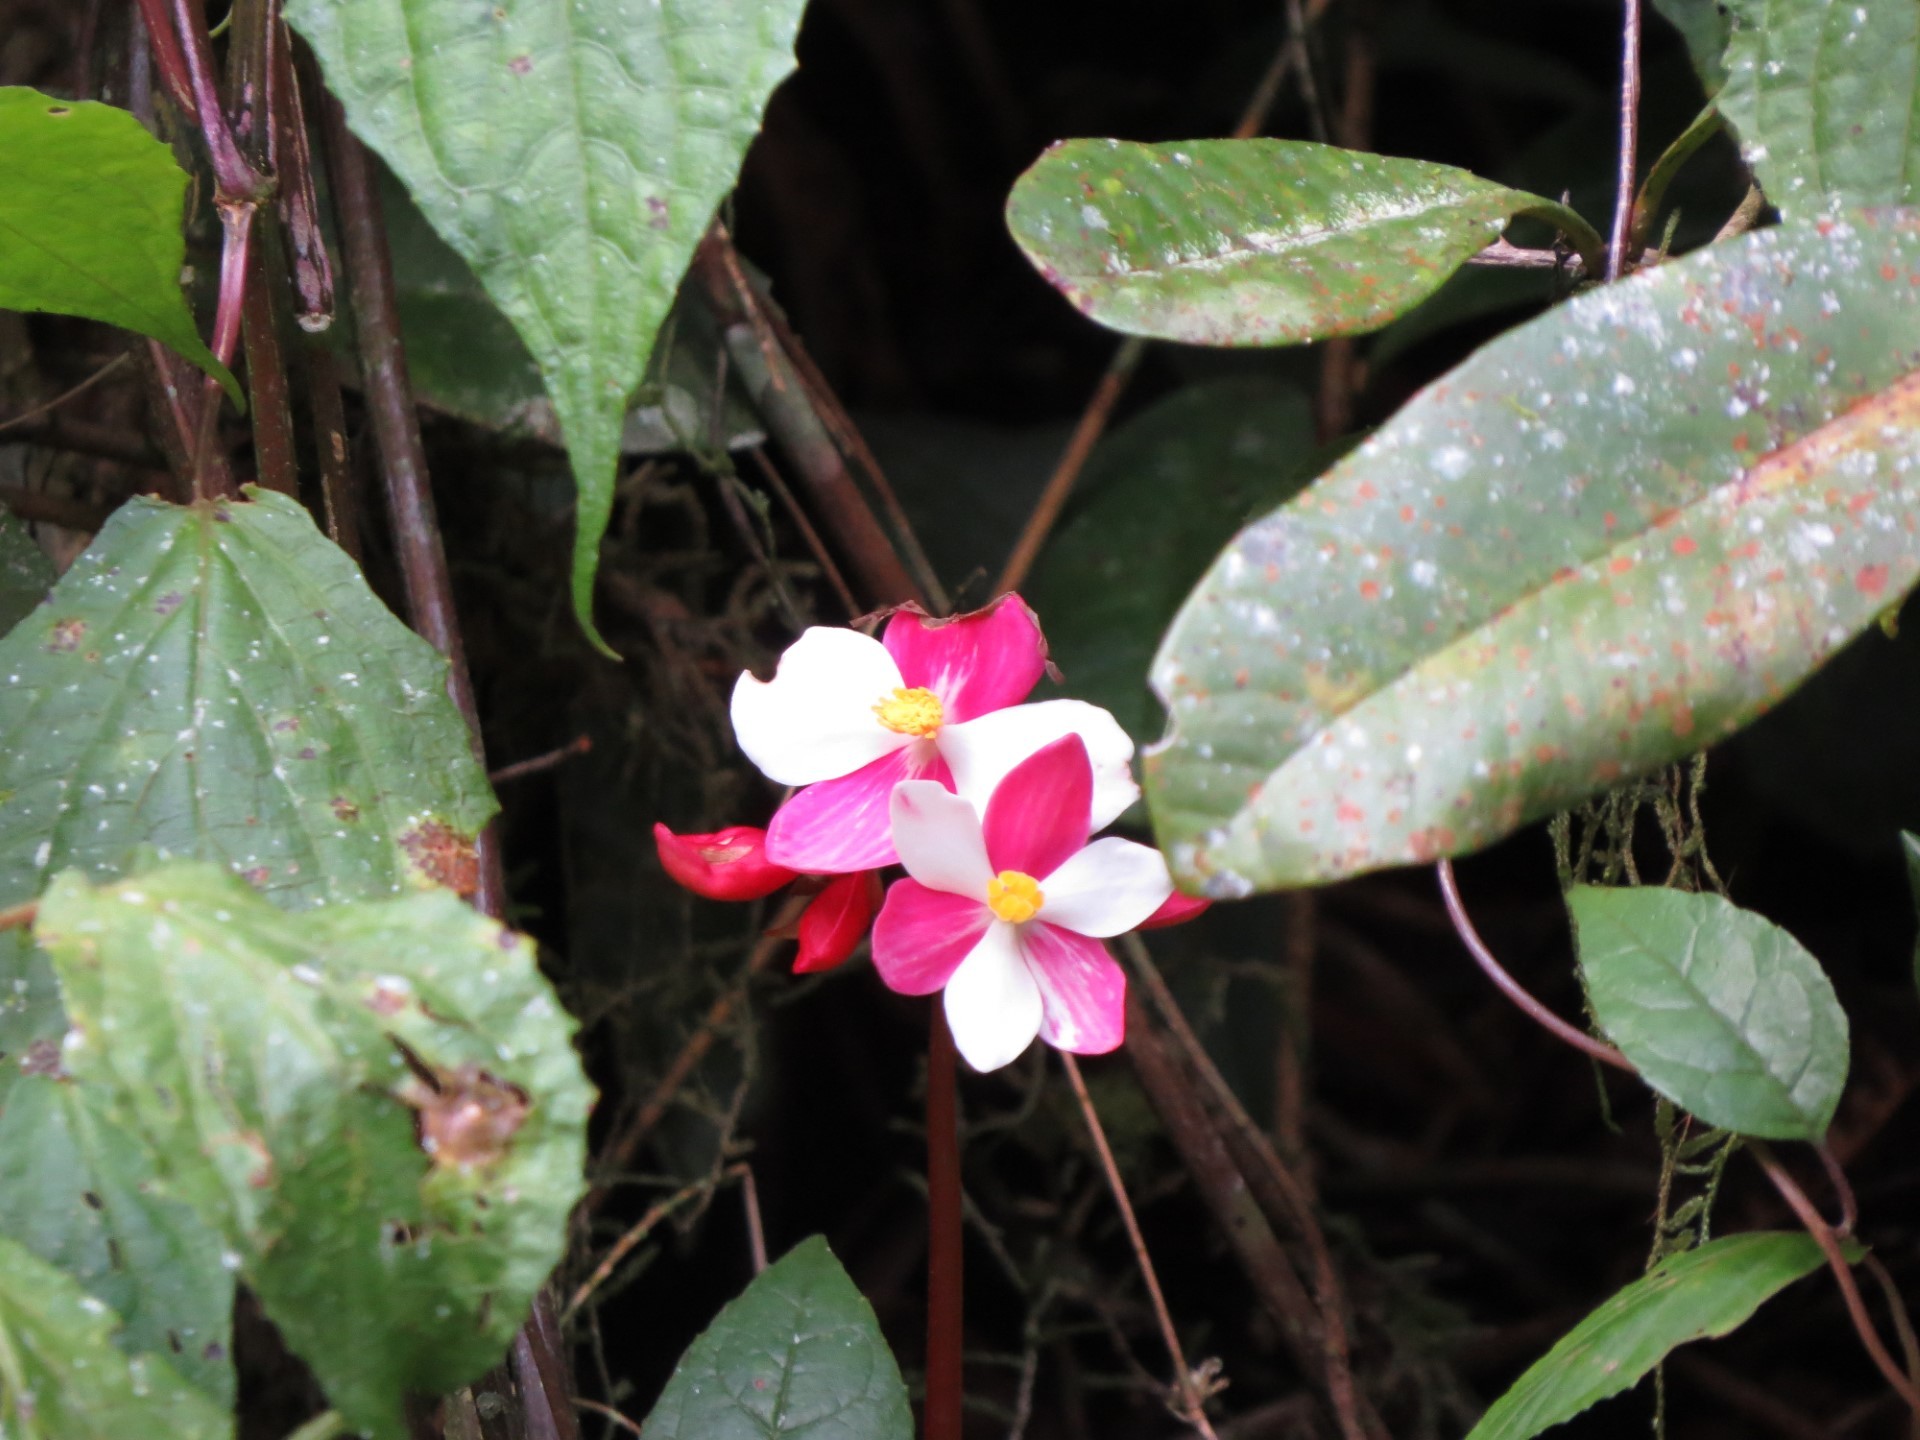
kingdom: Plantae
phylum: Tracheophyta
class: Magnoliopsida
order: Cucurbitales
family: Begoniaceae
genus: Begonia
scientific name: Begonia betsimisaraka
